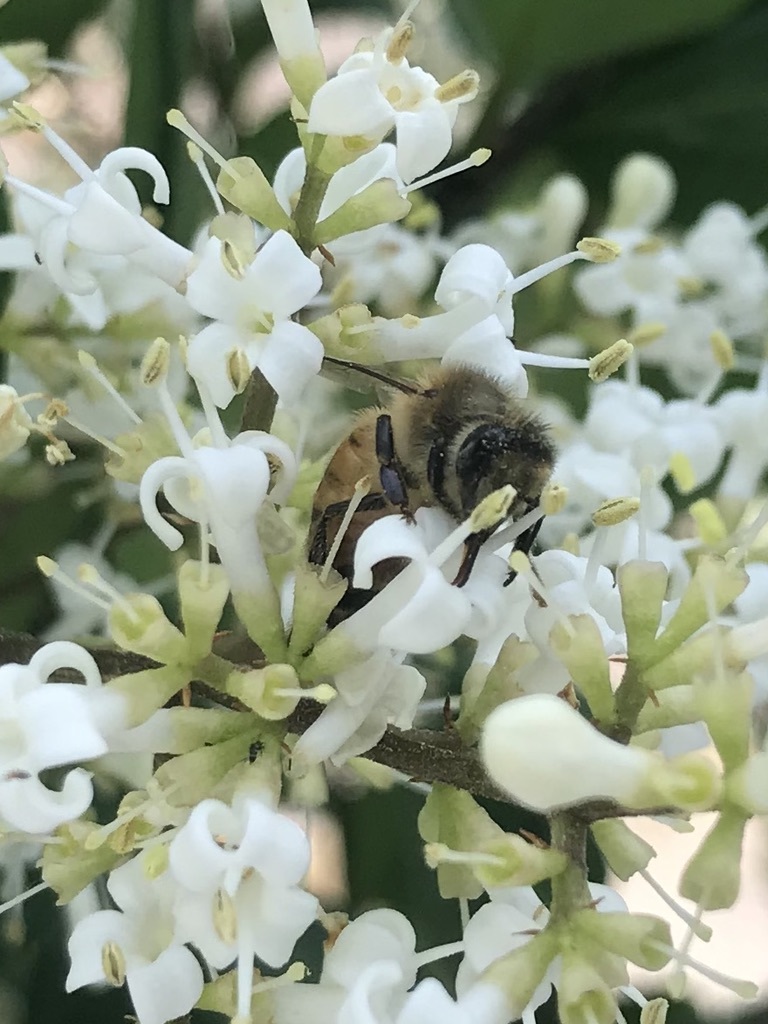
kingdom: Animalia
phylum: Arthropoda
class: Insecta
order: Hymenoptera
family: Apidae
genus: Apis
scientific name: Apis mellifera
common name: Honey bee
